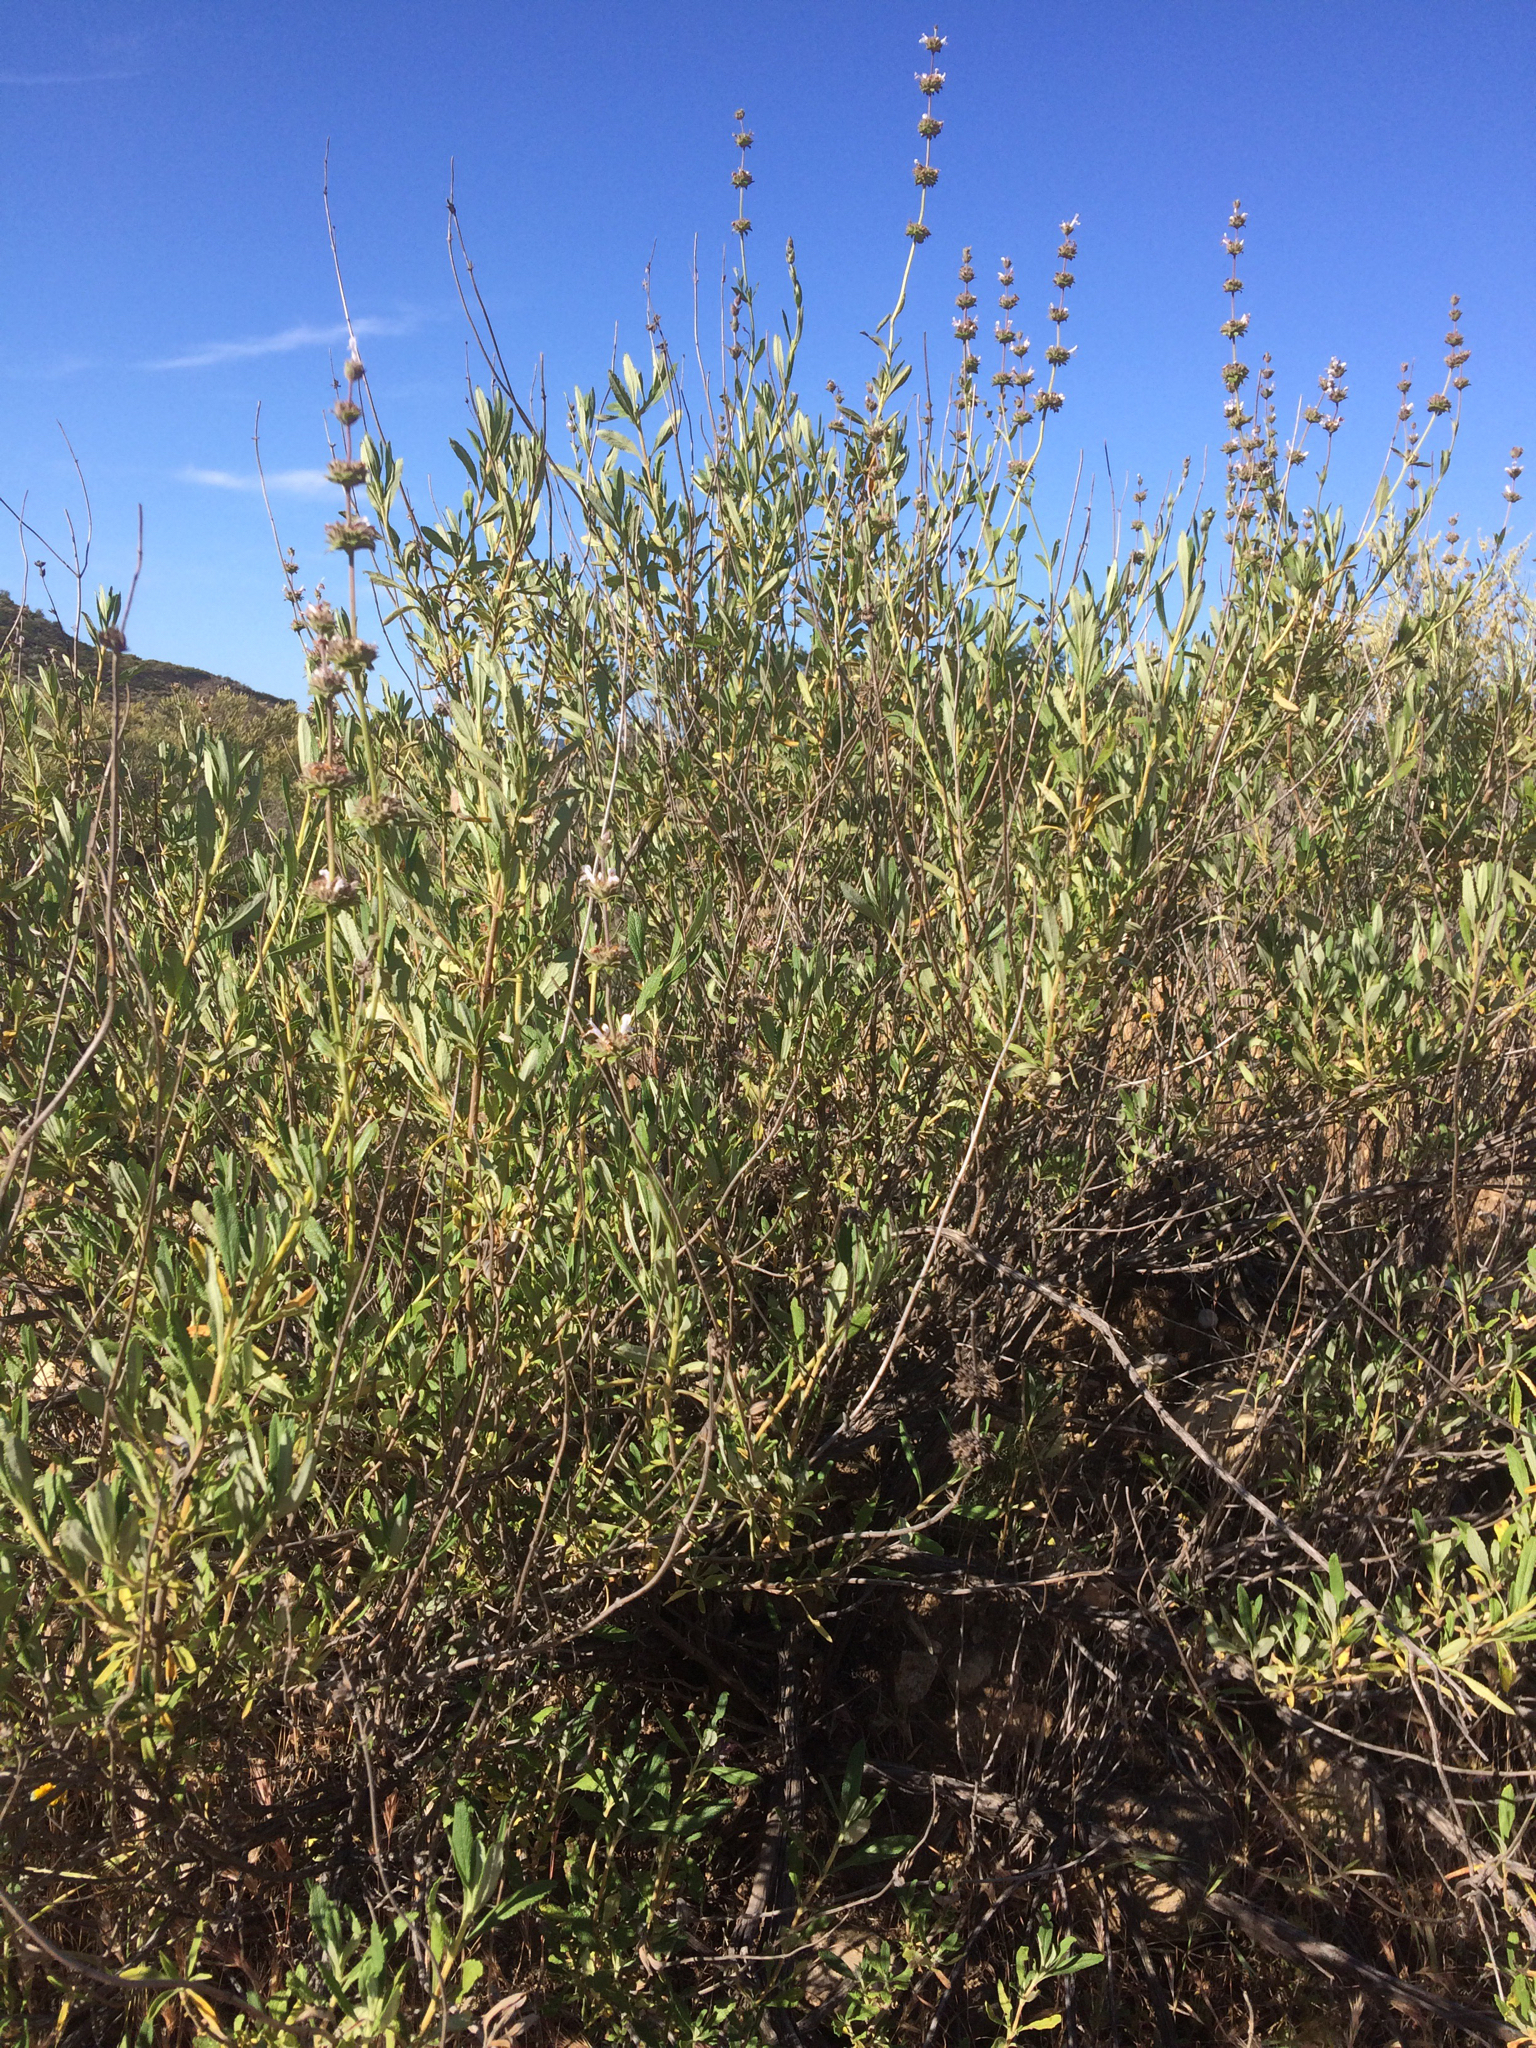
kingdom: Plantae
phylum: Tracheophyta
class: Magnoliopsida
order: Lamiales
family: Lamiaceae
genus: Salvia
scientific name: Salvia mellifera
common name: Black sage
